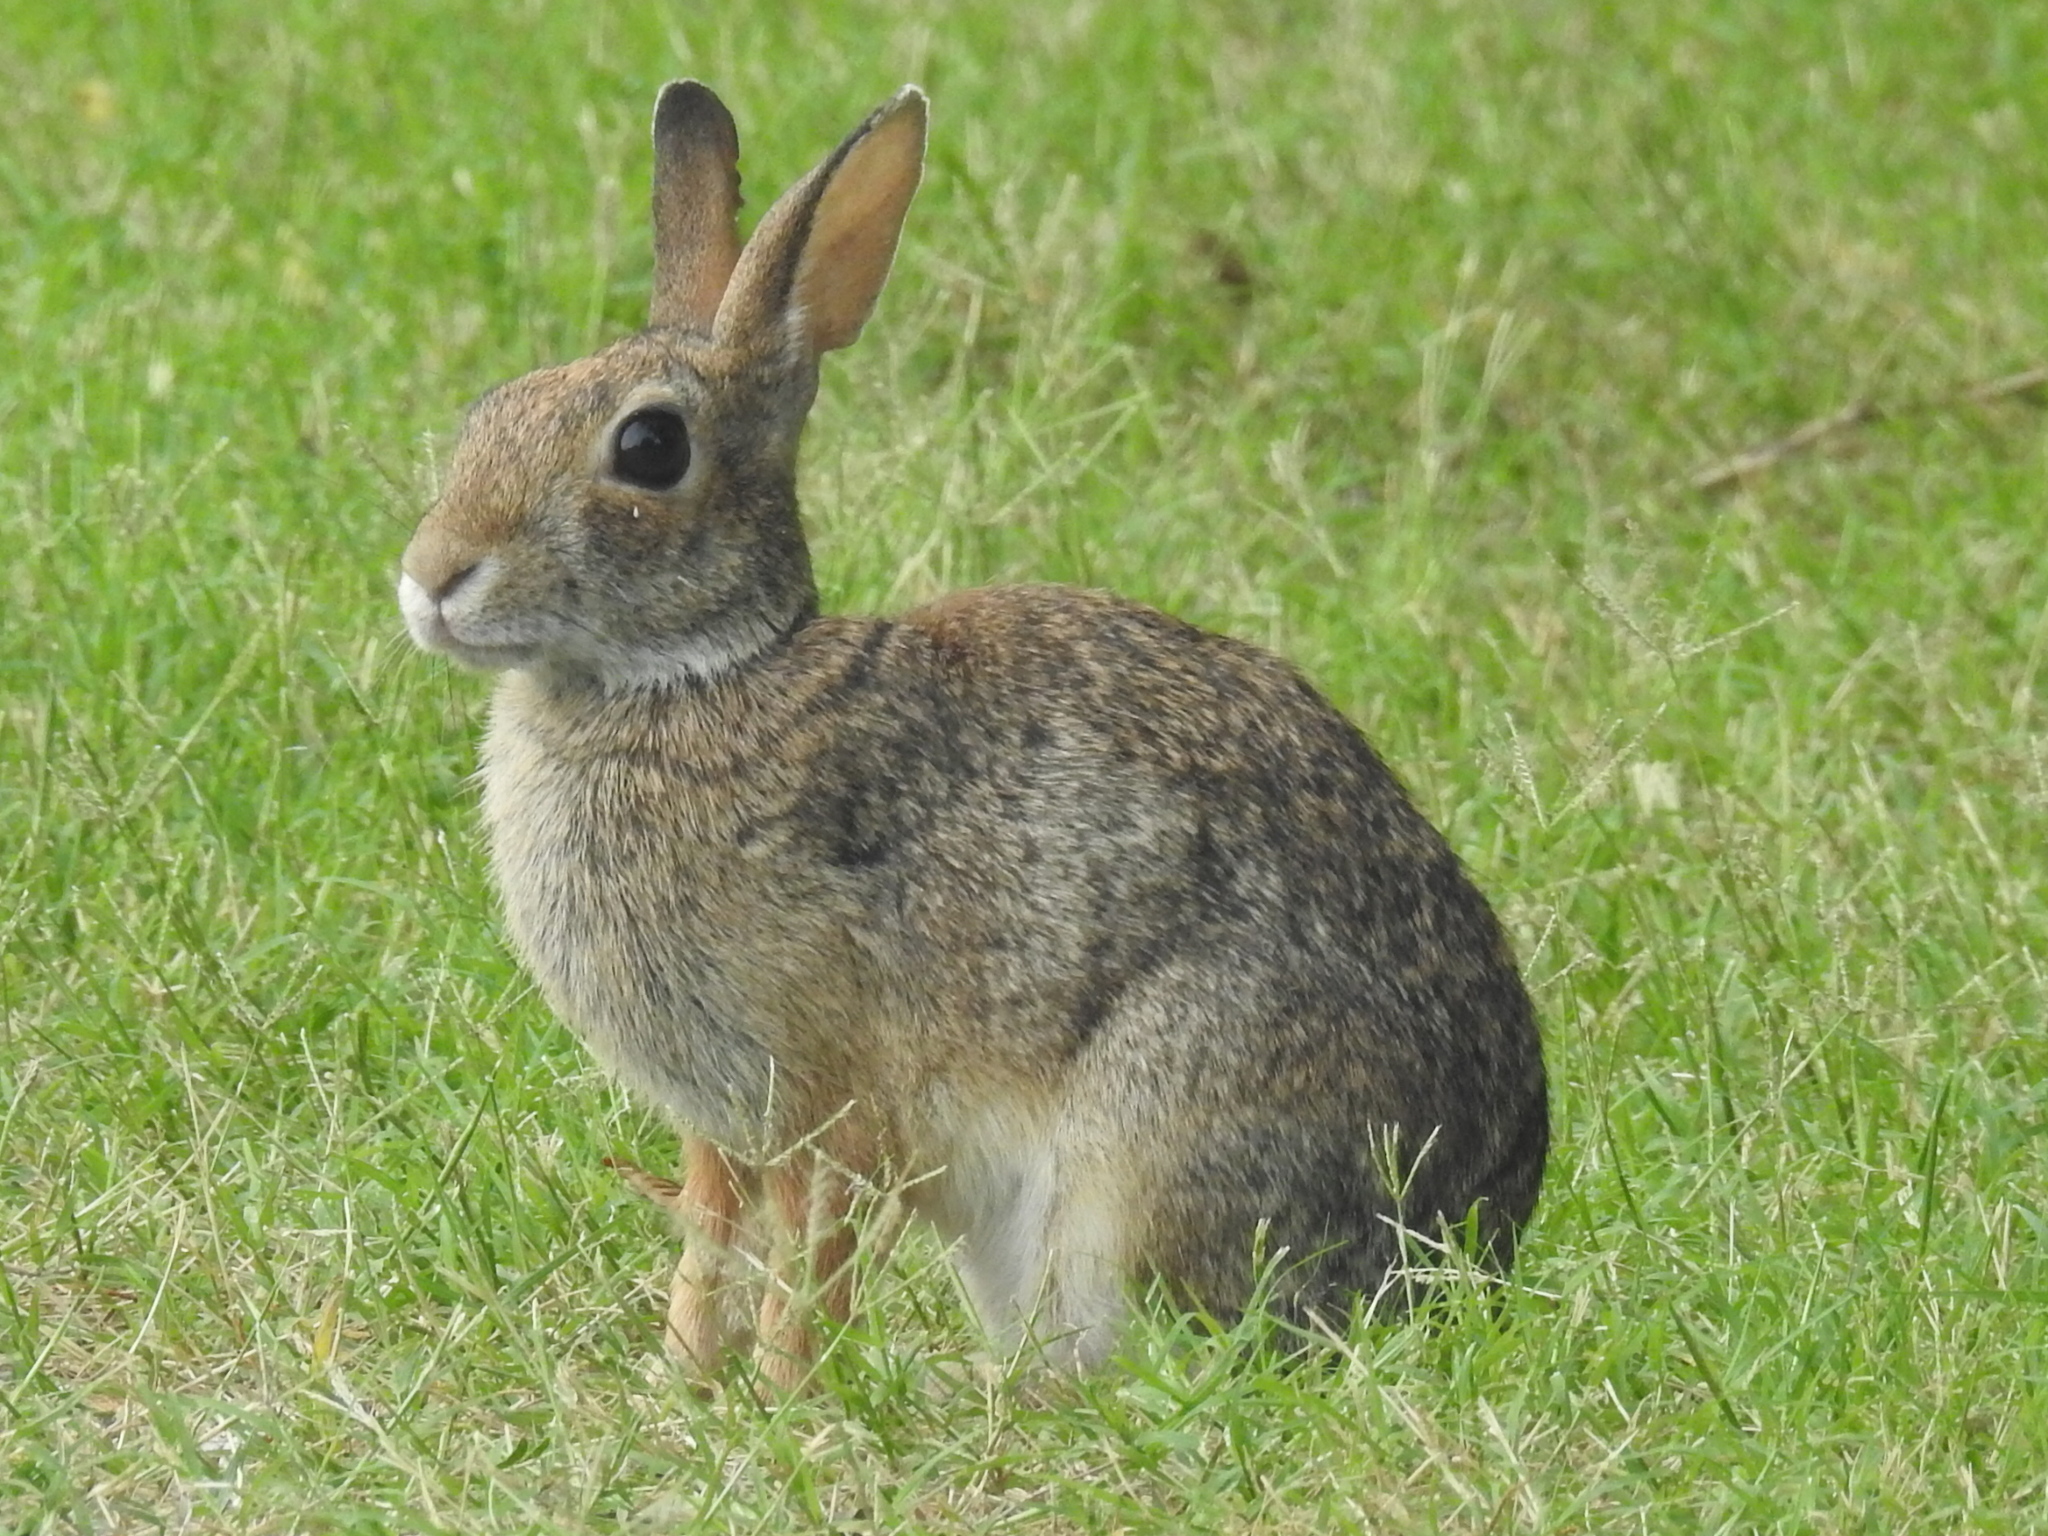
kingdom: Animalia
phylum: Chordata
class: Mammalia
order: Lagomorpha
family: Leporidae
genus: Sylvilagus
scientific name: Sylvilagus floridanus
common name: Eastern cottontail
